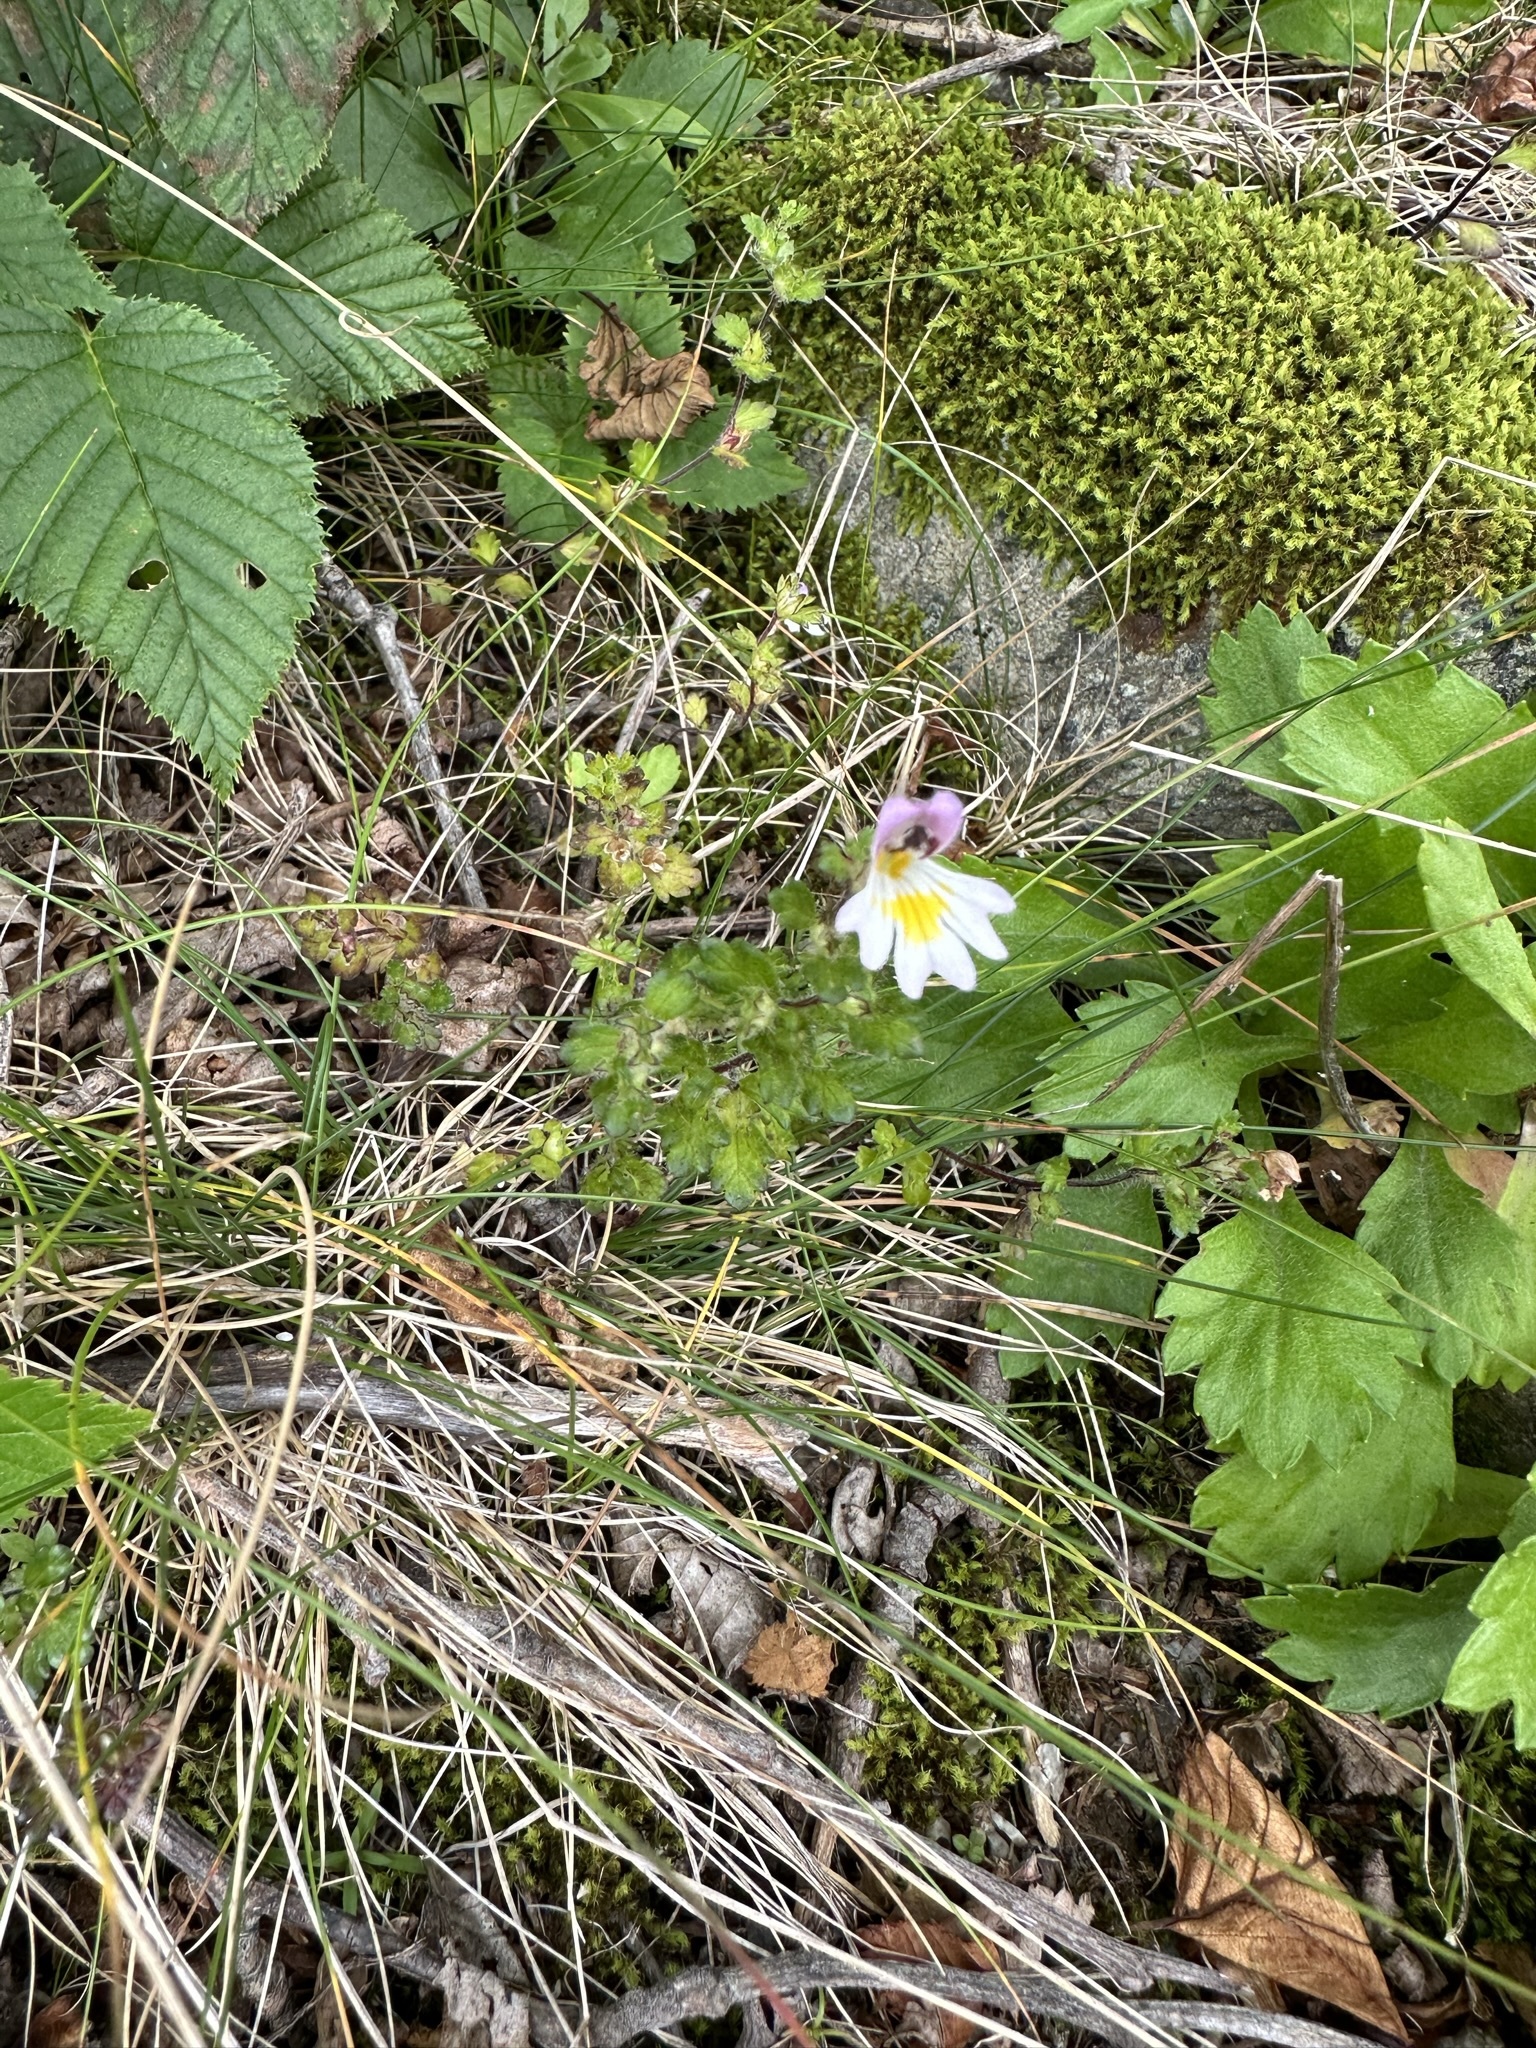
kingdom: Plantae
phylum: Tracheophyta
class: Magnoliopsida
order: Lamiales
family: Orobanchaceae
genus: Euphrasia
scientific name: Euphrasia matsumurae
